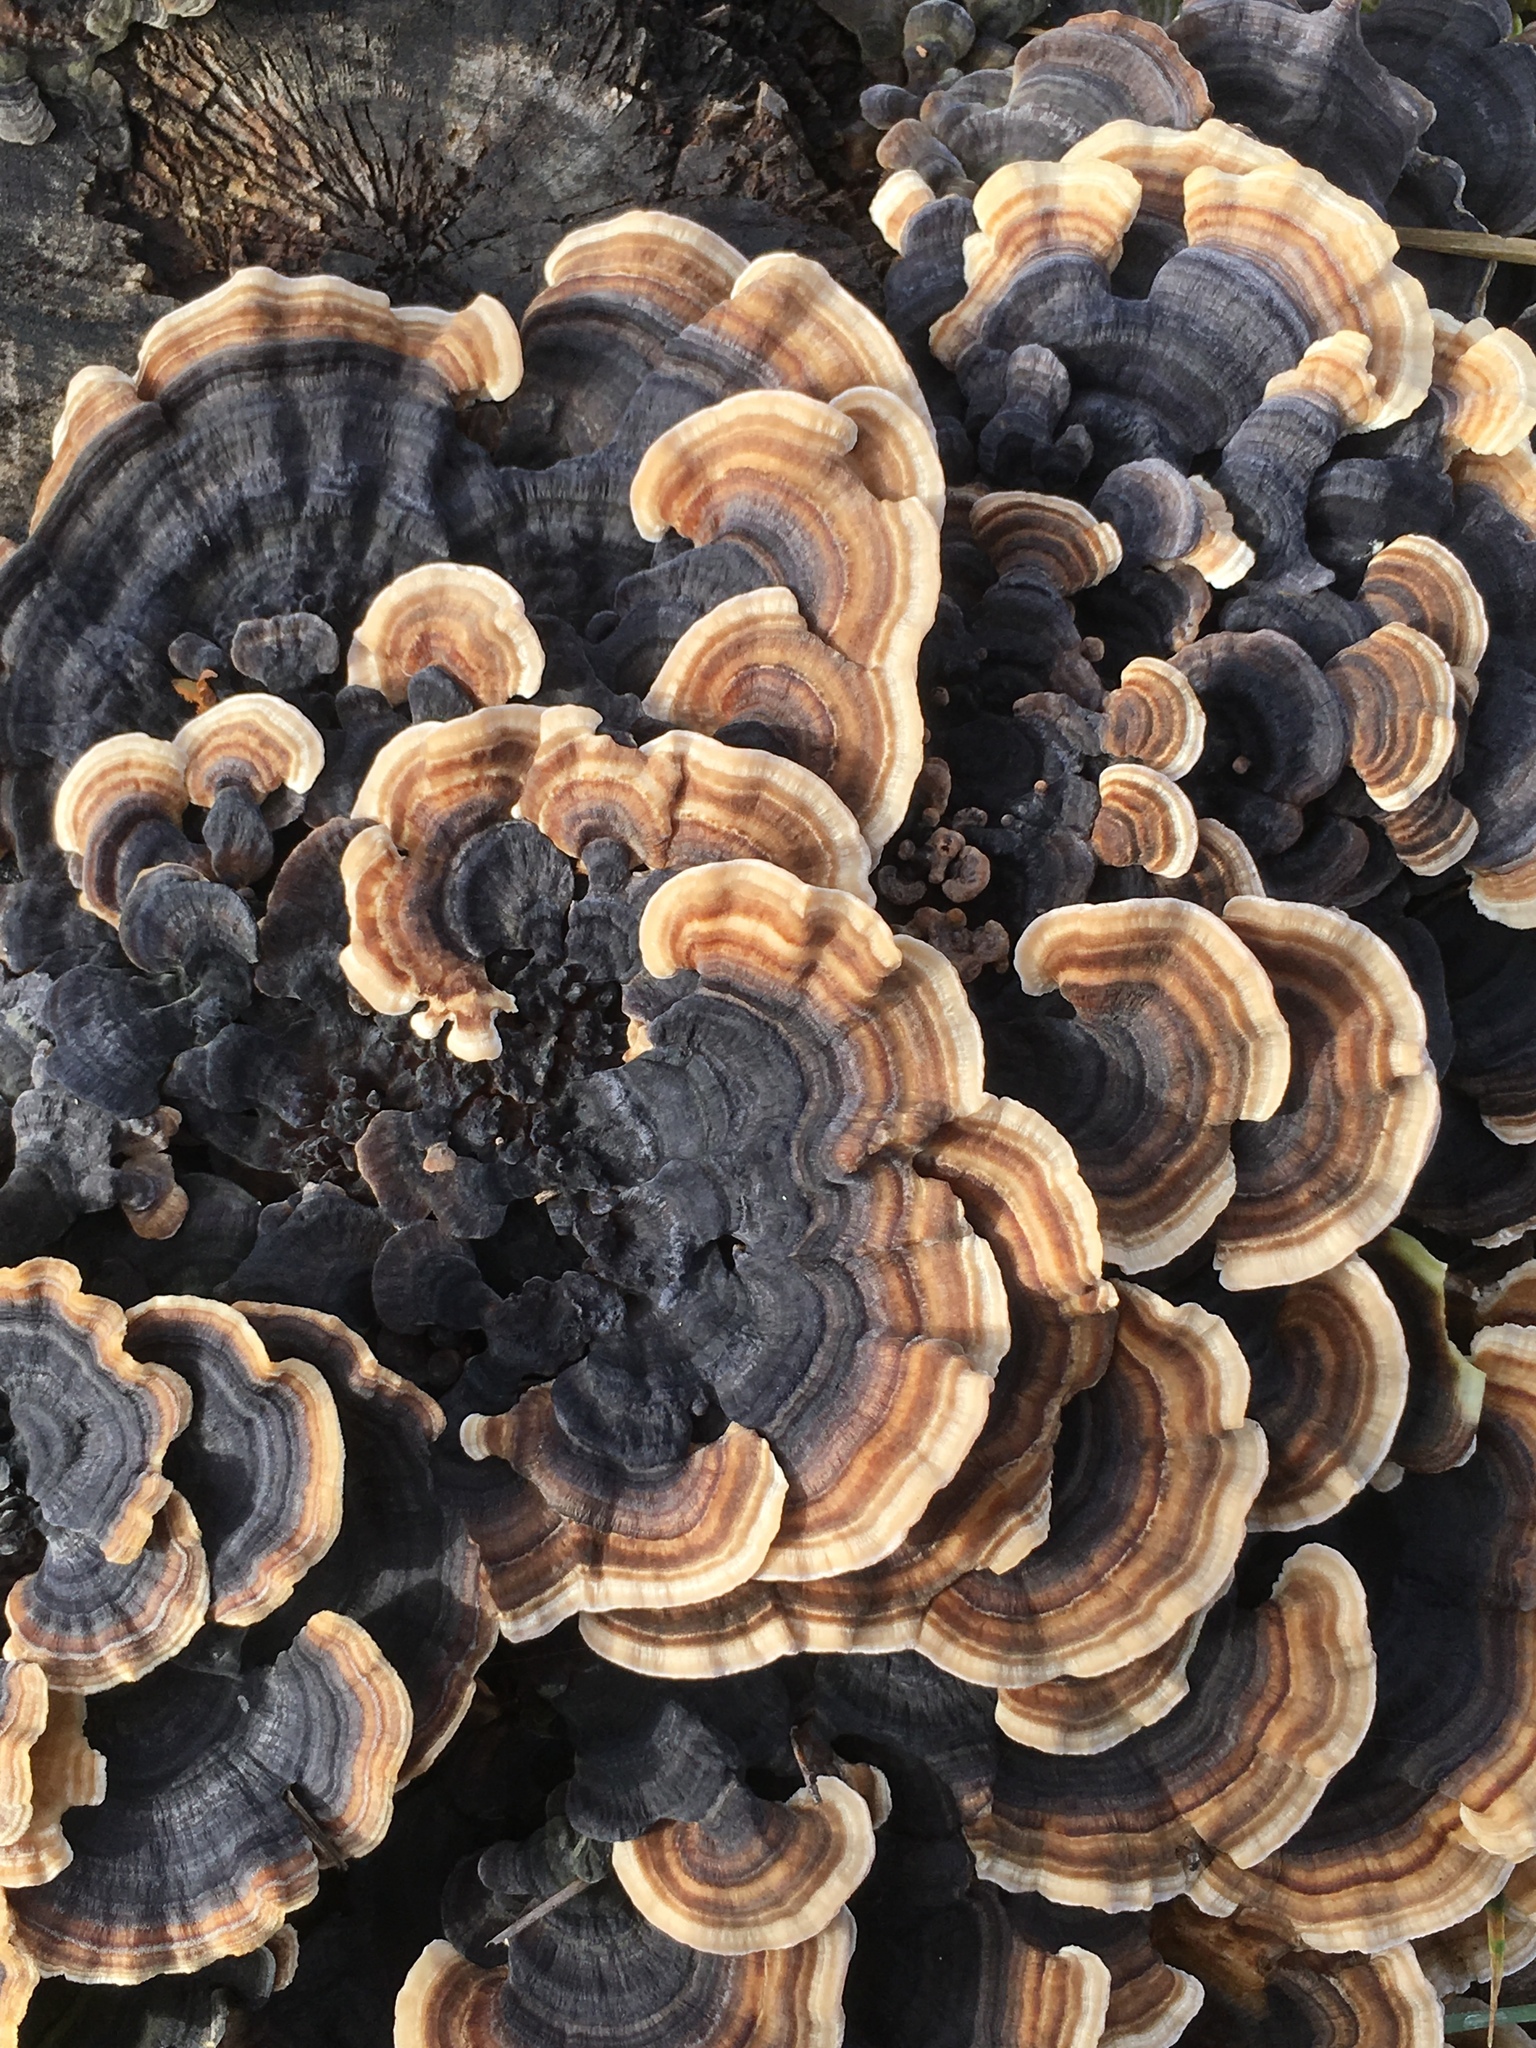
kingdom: Fungi
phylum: Basidiomycota
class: Agaricomycetes
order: Polyporales
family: Polyporaceae
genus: Trametes
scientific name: Trametes versicolor
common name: Turkeytail
